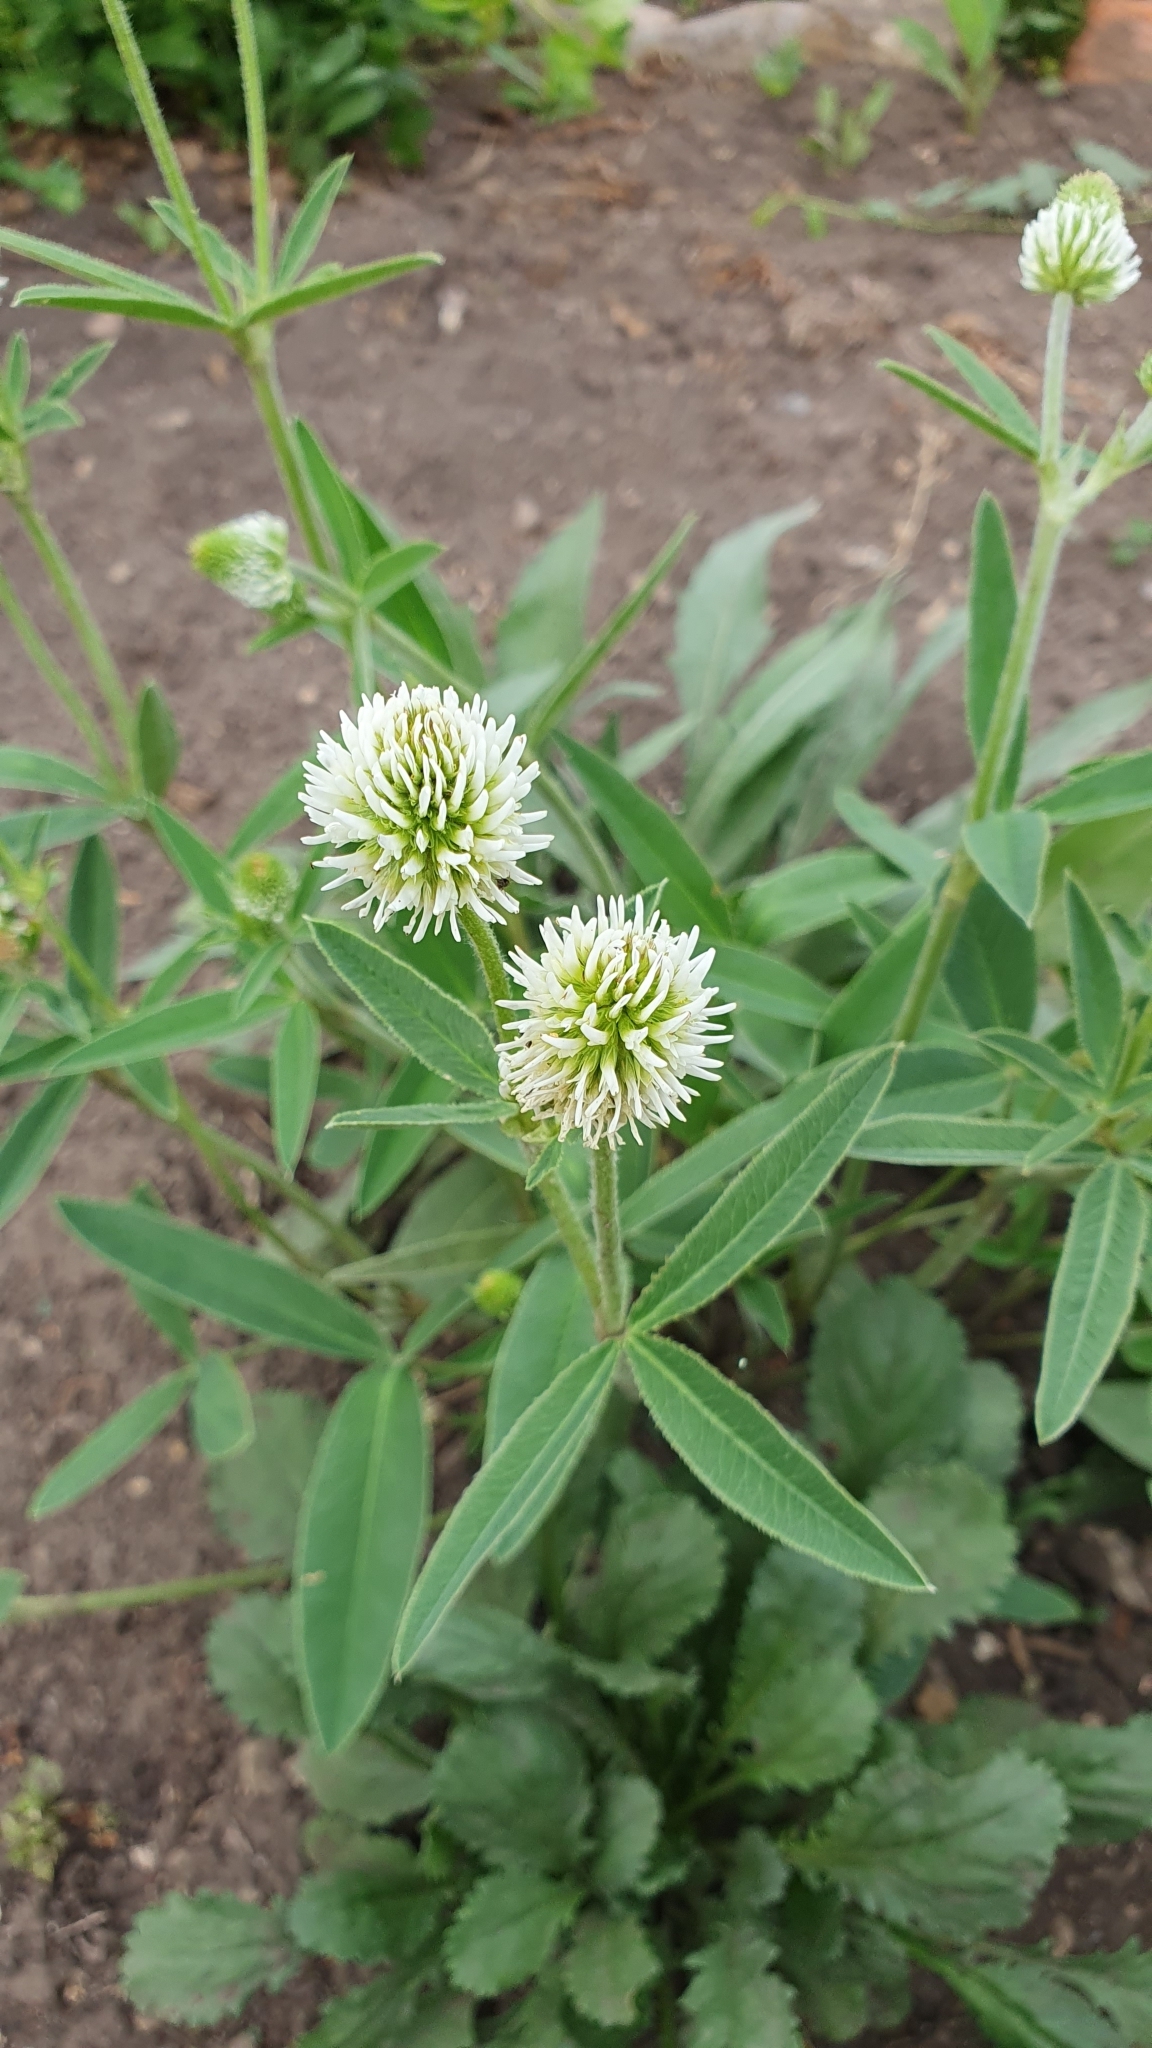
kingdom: Plantae
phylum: Tracheophyta
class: Magnoliopsida
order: Fabales
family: Fabaceae
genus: Trifolium
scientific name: Trifolium montanum
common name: Mountain clover
